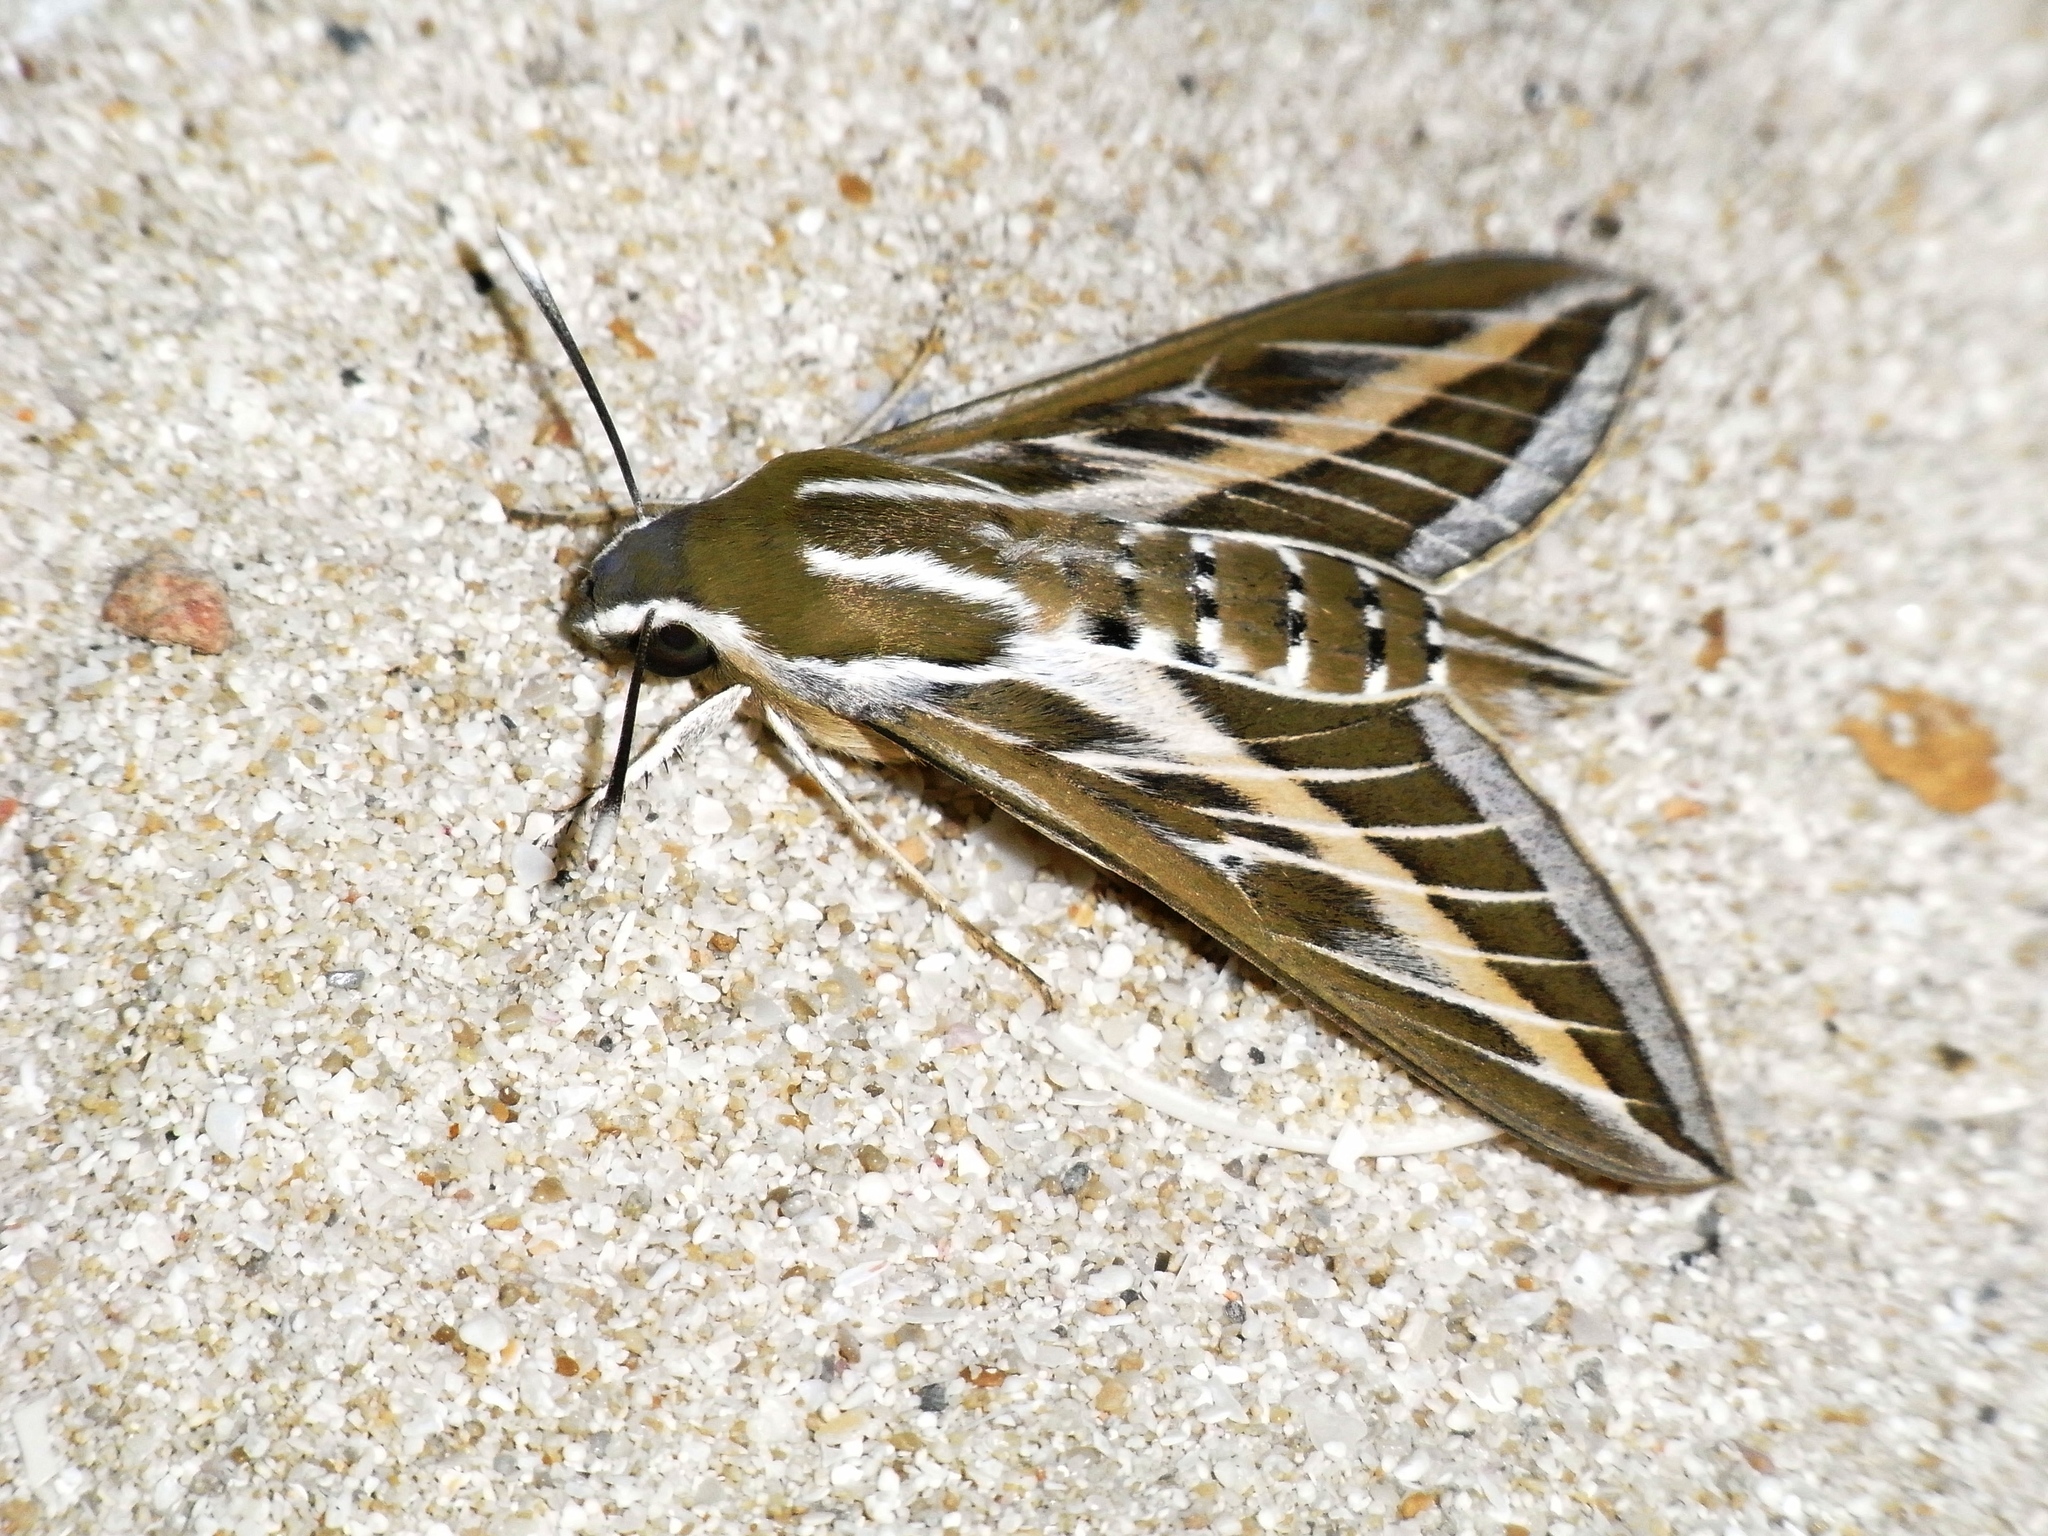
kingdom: Animalia
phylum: Arthropoda
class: Insecta
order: Lepidoptera
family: Sphingidae
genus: Hyles
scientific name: Hyles livornica
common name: Striped hawk-moth
